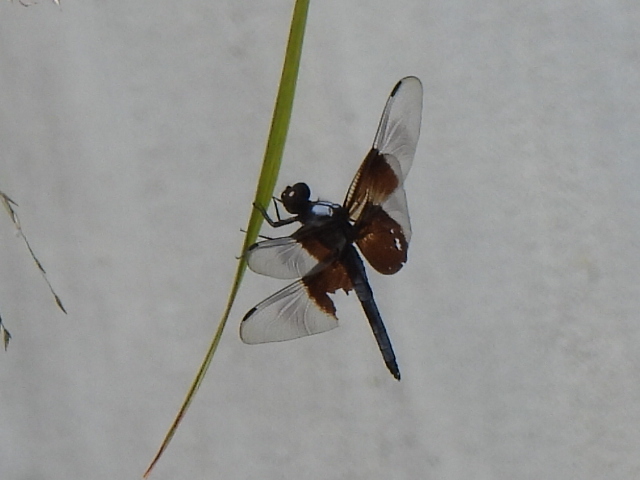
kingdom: Animalia
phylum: Arthropoda
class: Insecta
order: Odonata
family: Libellulidae
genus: Libellula
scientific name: Libellula luctuosa
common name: Widow skimmer
